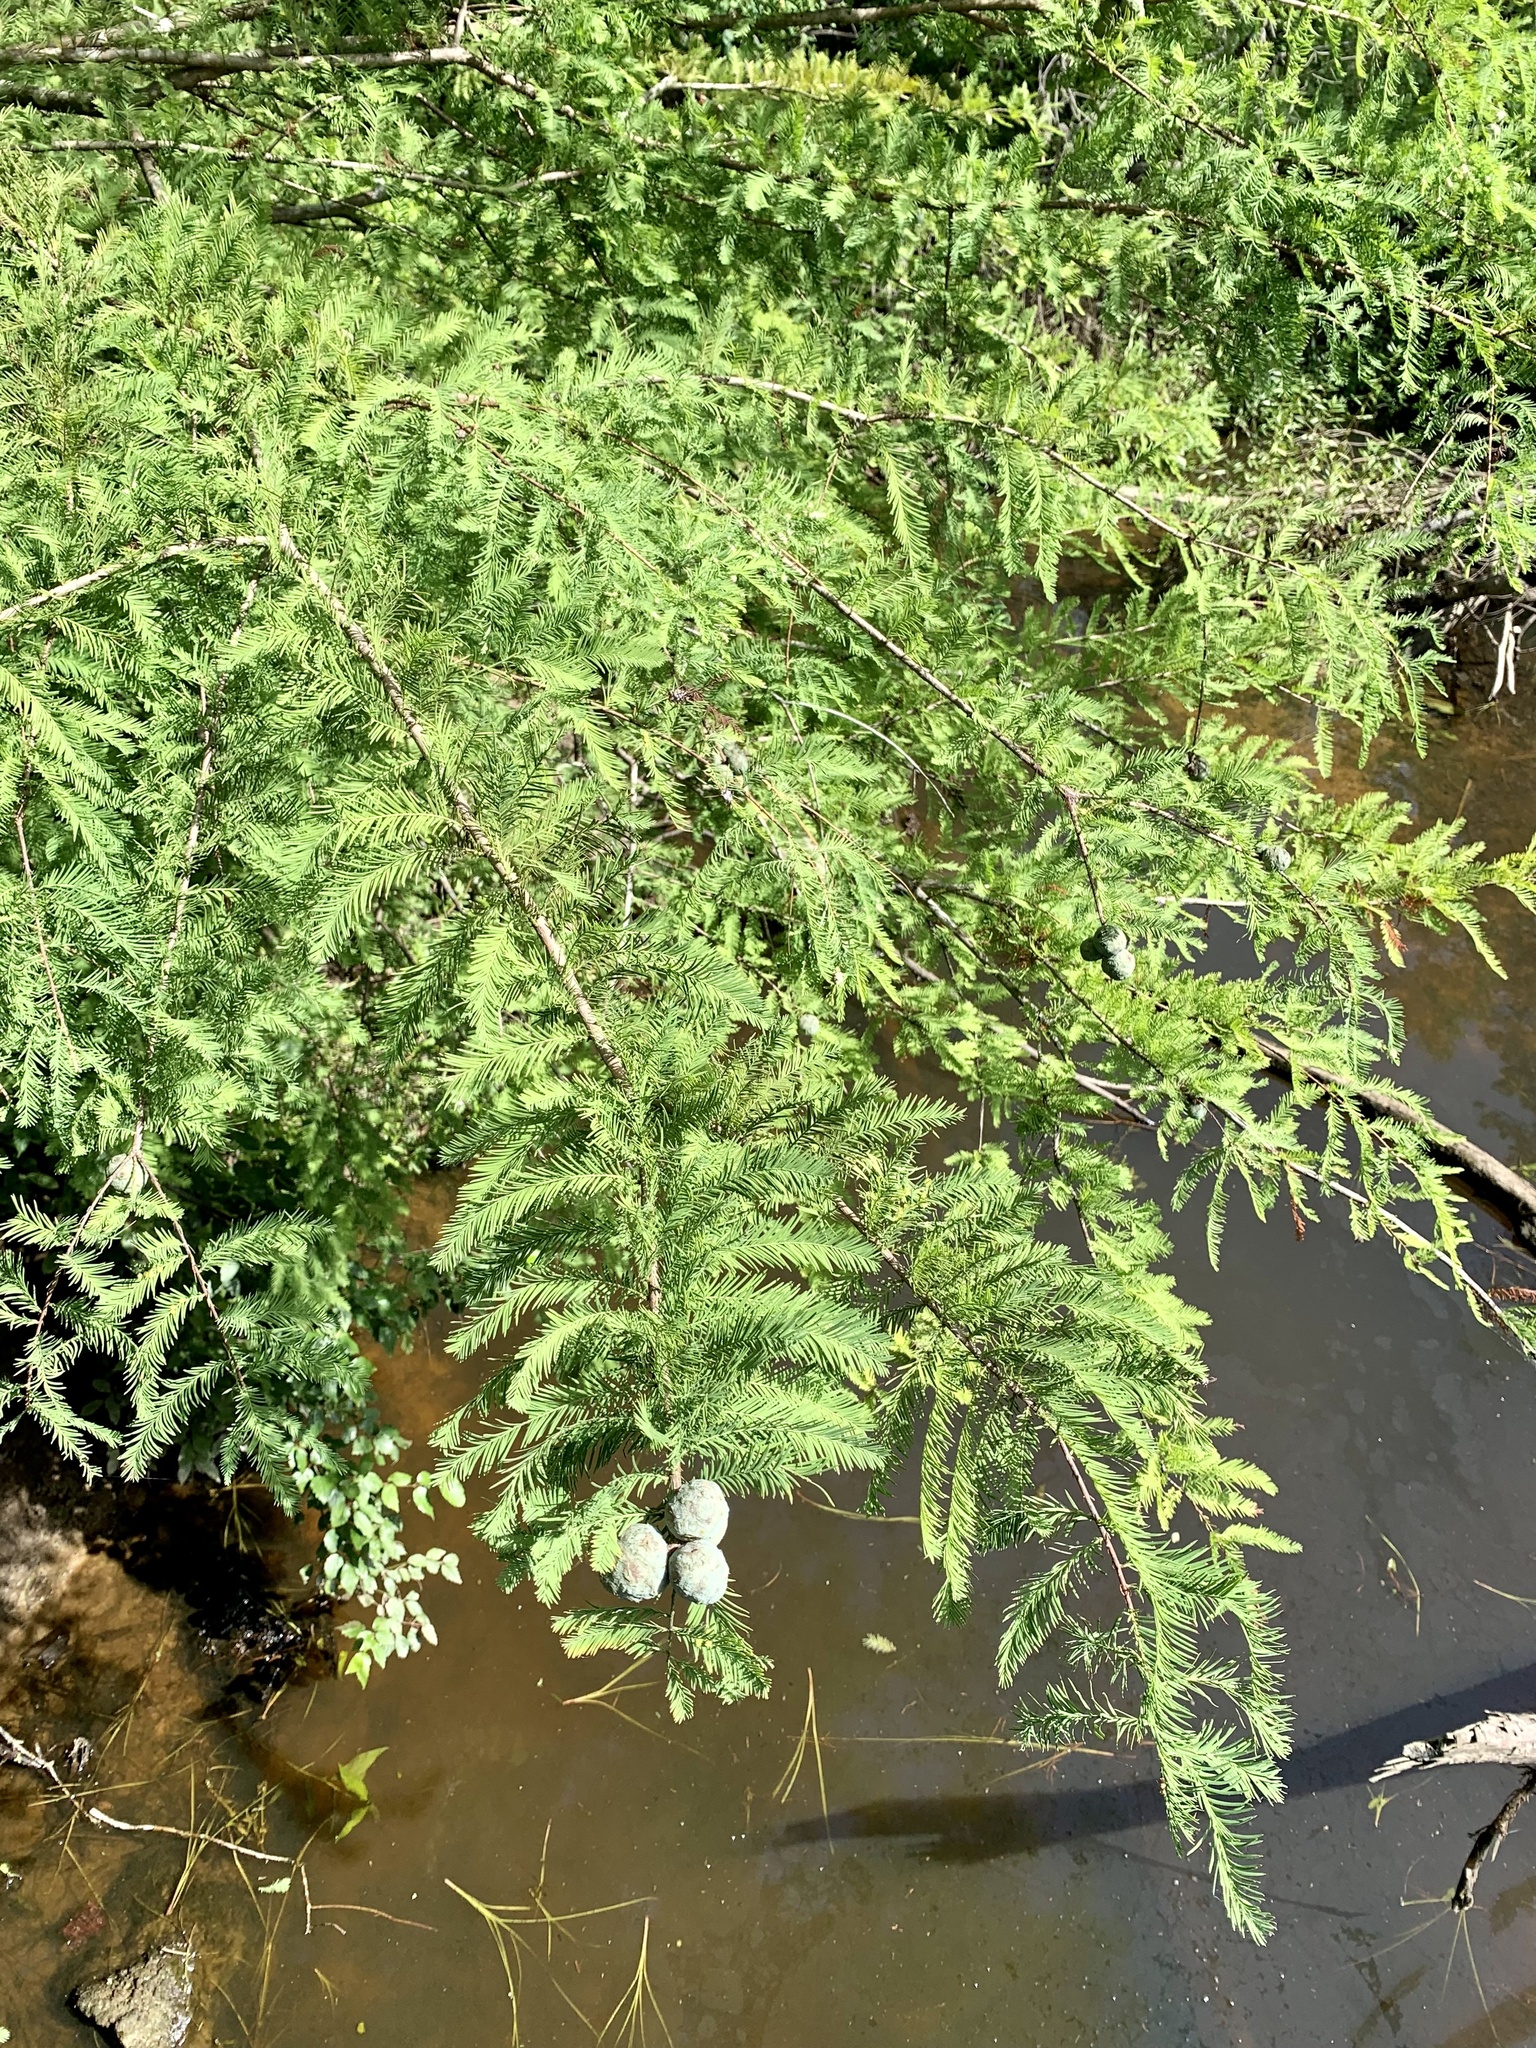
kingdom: Plantae
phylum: Tracheophyta
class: Pinopsida
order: Pinales
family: Cupressaceae
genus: Taxodium
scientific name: Taxodium distichum
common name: Bald cypress
